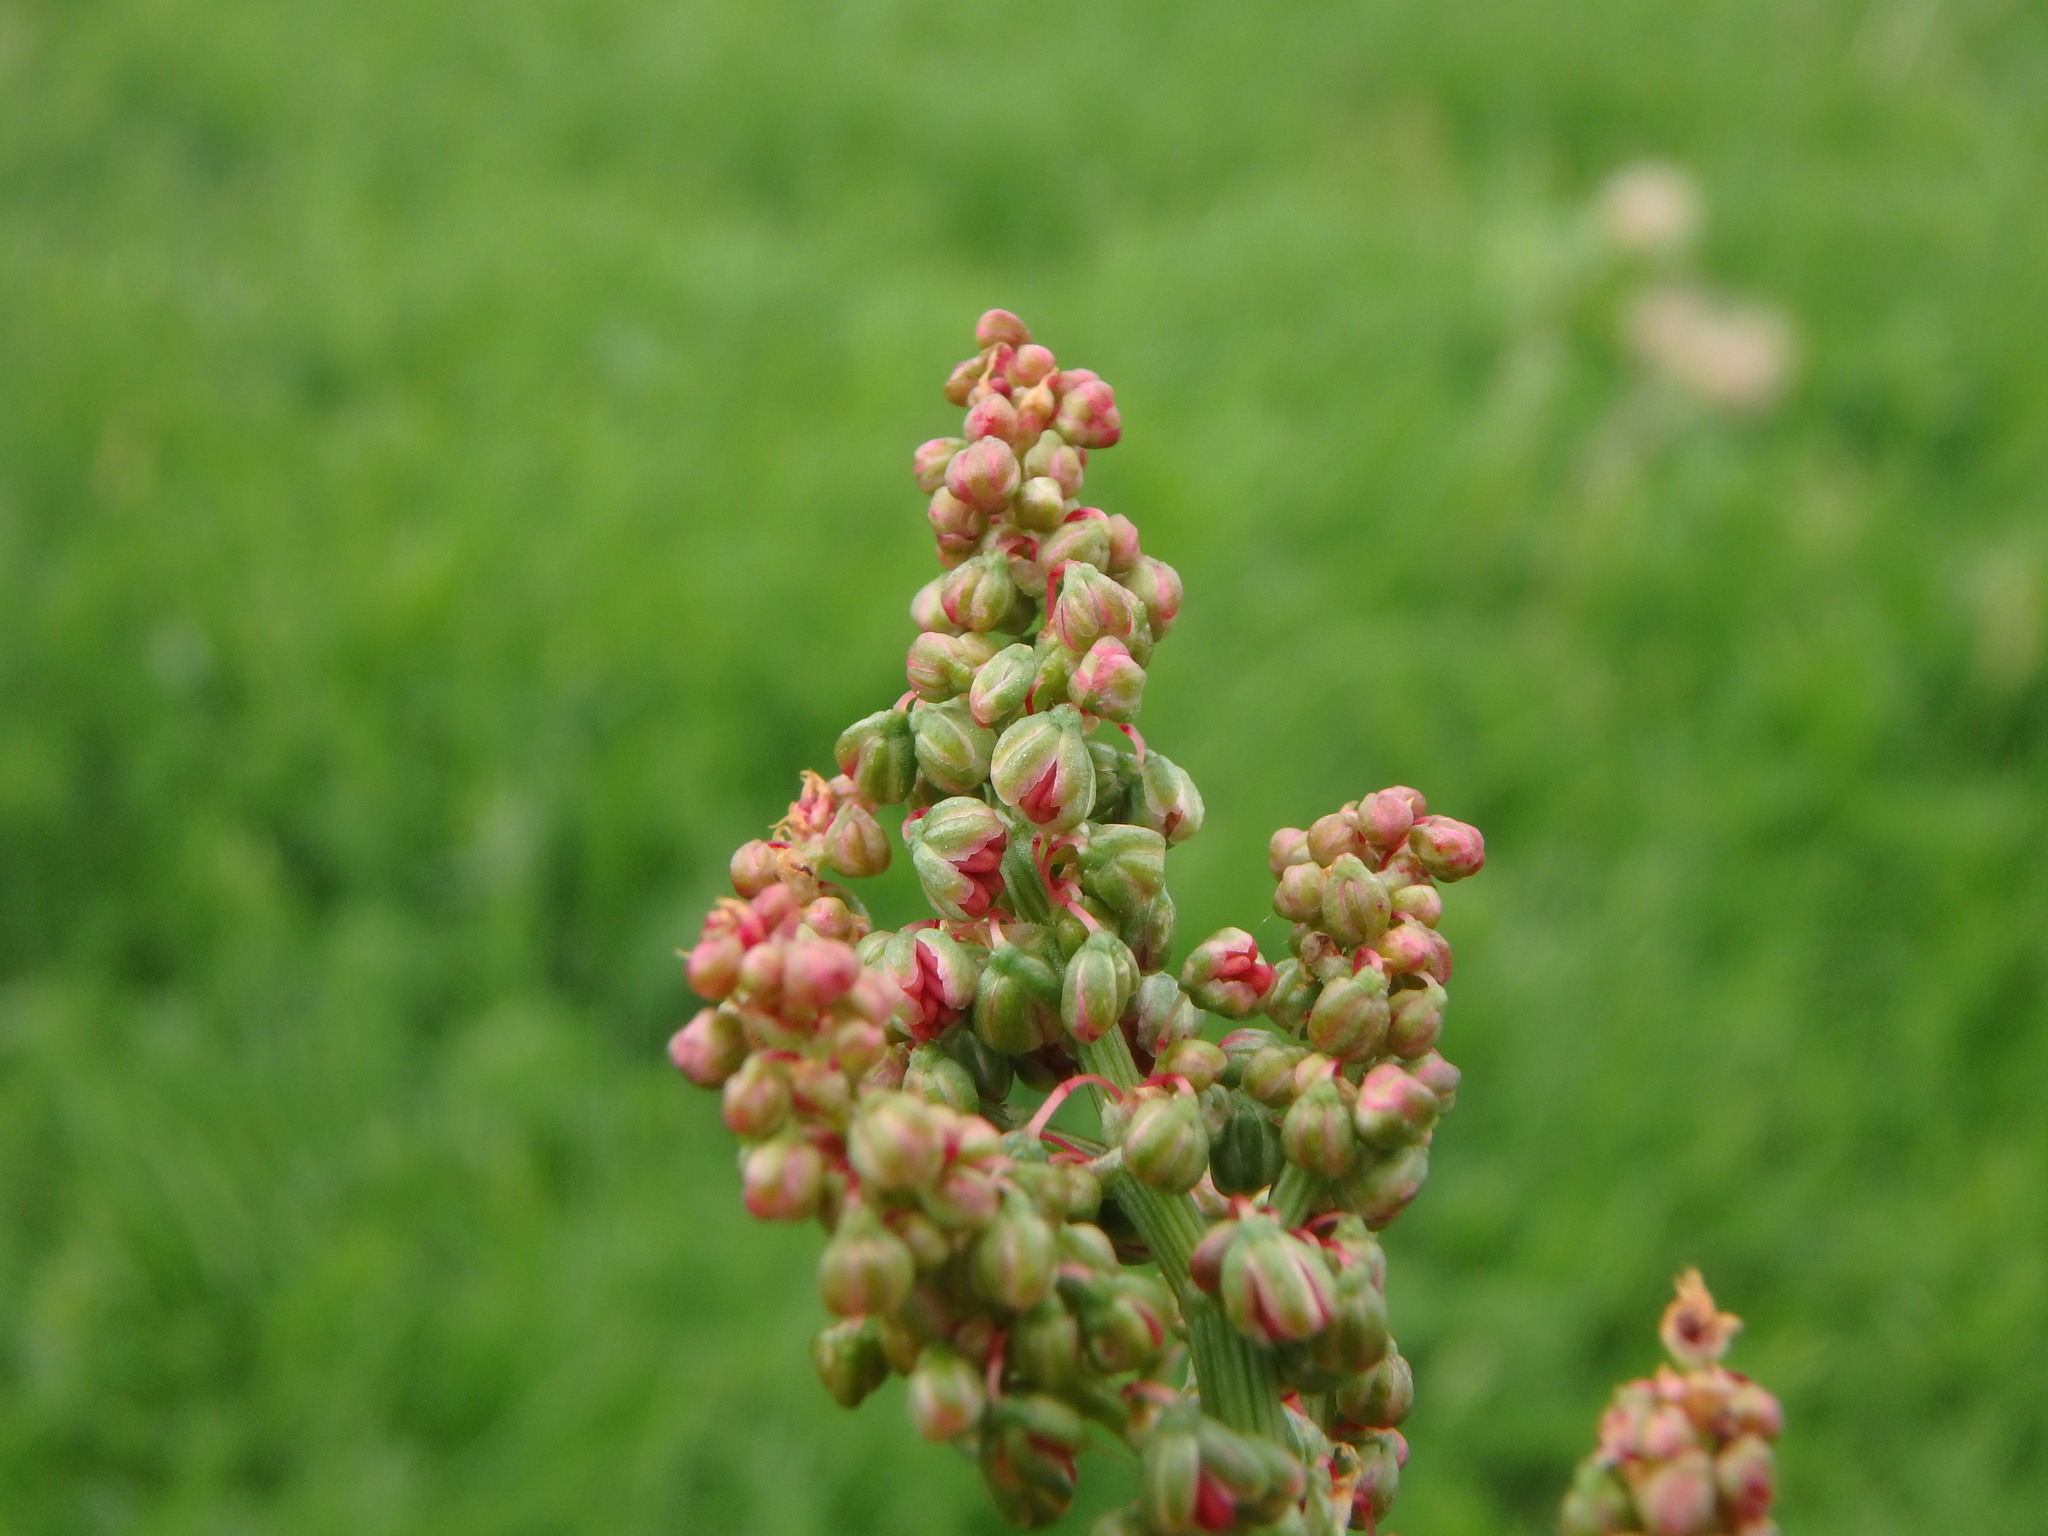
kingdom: Plantae
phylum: Tracheophyta
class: Magnoliopsida
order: Caryophyllales
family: Polygonaceae
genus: Rumex
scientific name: Rumex acetosa
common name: Garden sorrel
